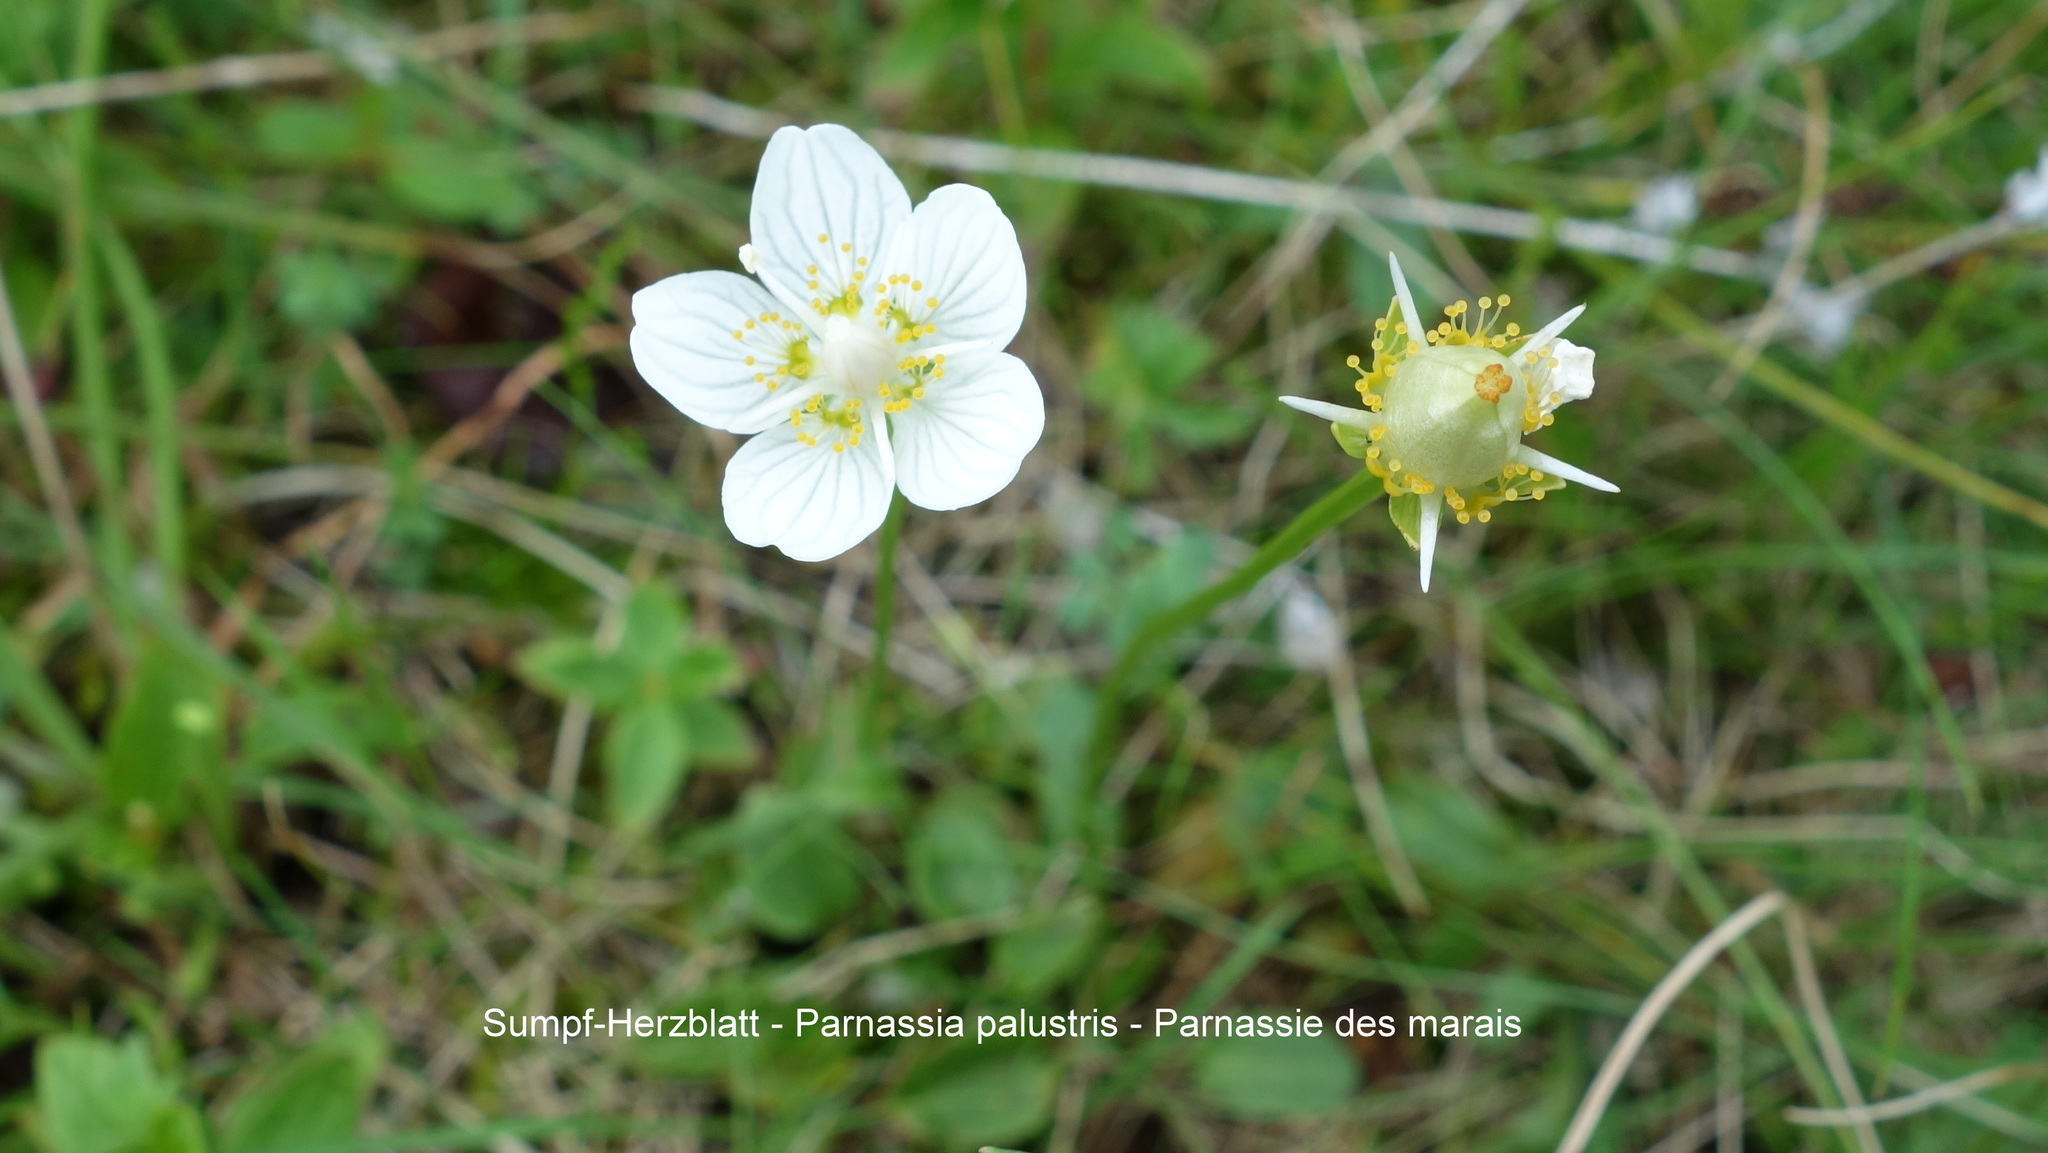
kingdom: Plantae
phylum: Tracheophyta
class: Magnoliopsida
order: Celastrales
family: Parnassiaceae
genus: Parnassia
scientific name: Parnassia palustris
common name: Grass-of-parnassus
